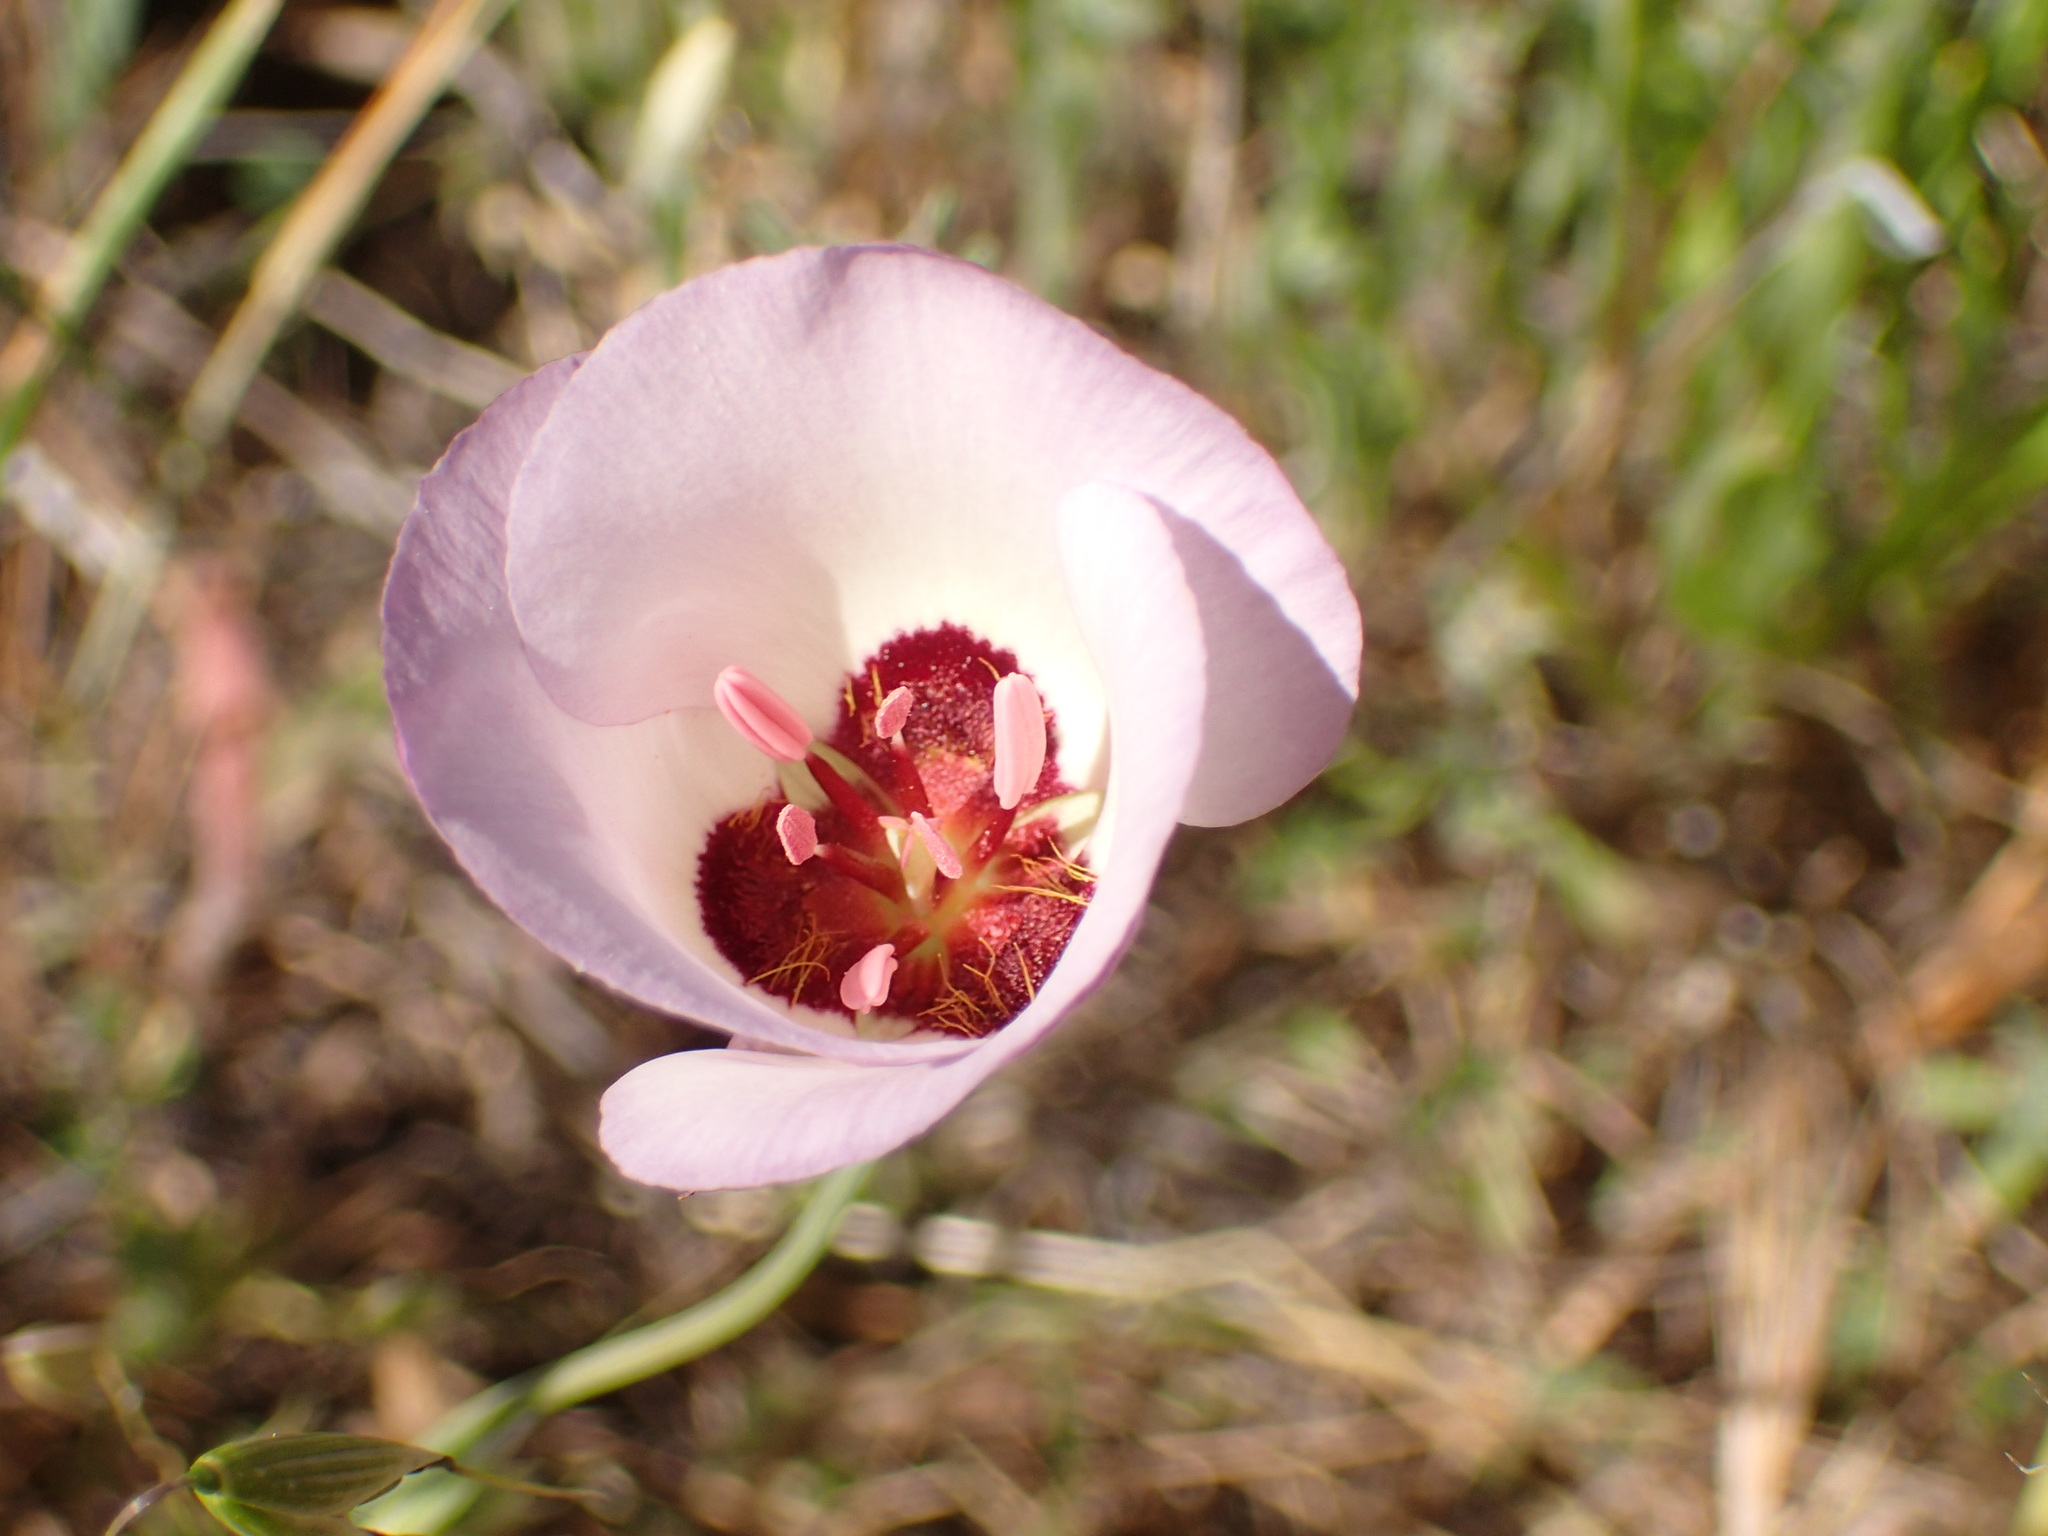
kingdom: Plantae
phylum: Tracheophyta
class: Liliopsida
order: Liliales
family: Liliaceae
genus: Calochortus
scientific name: Calochortus catalinae
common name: Catalina mariposa-lily
